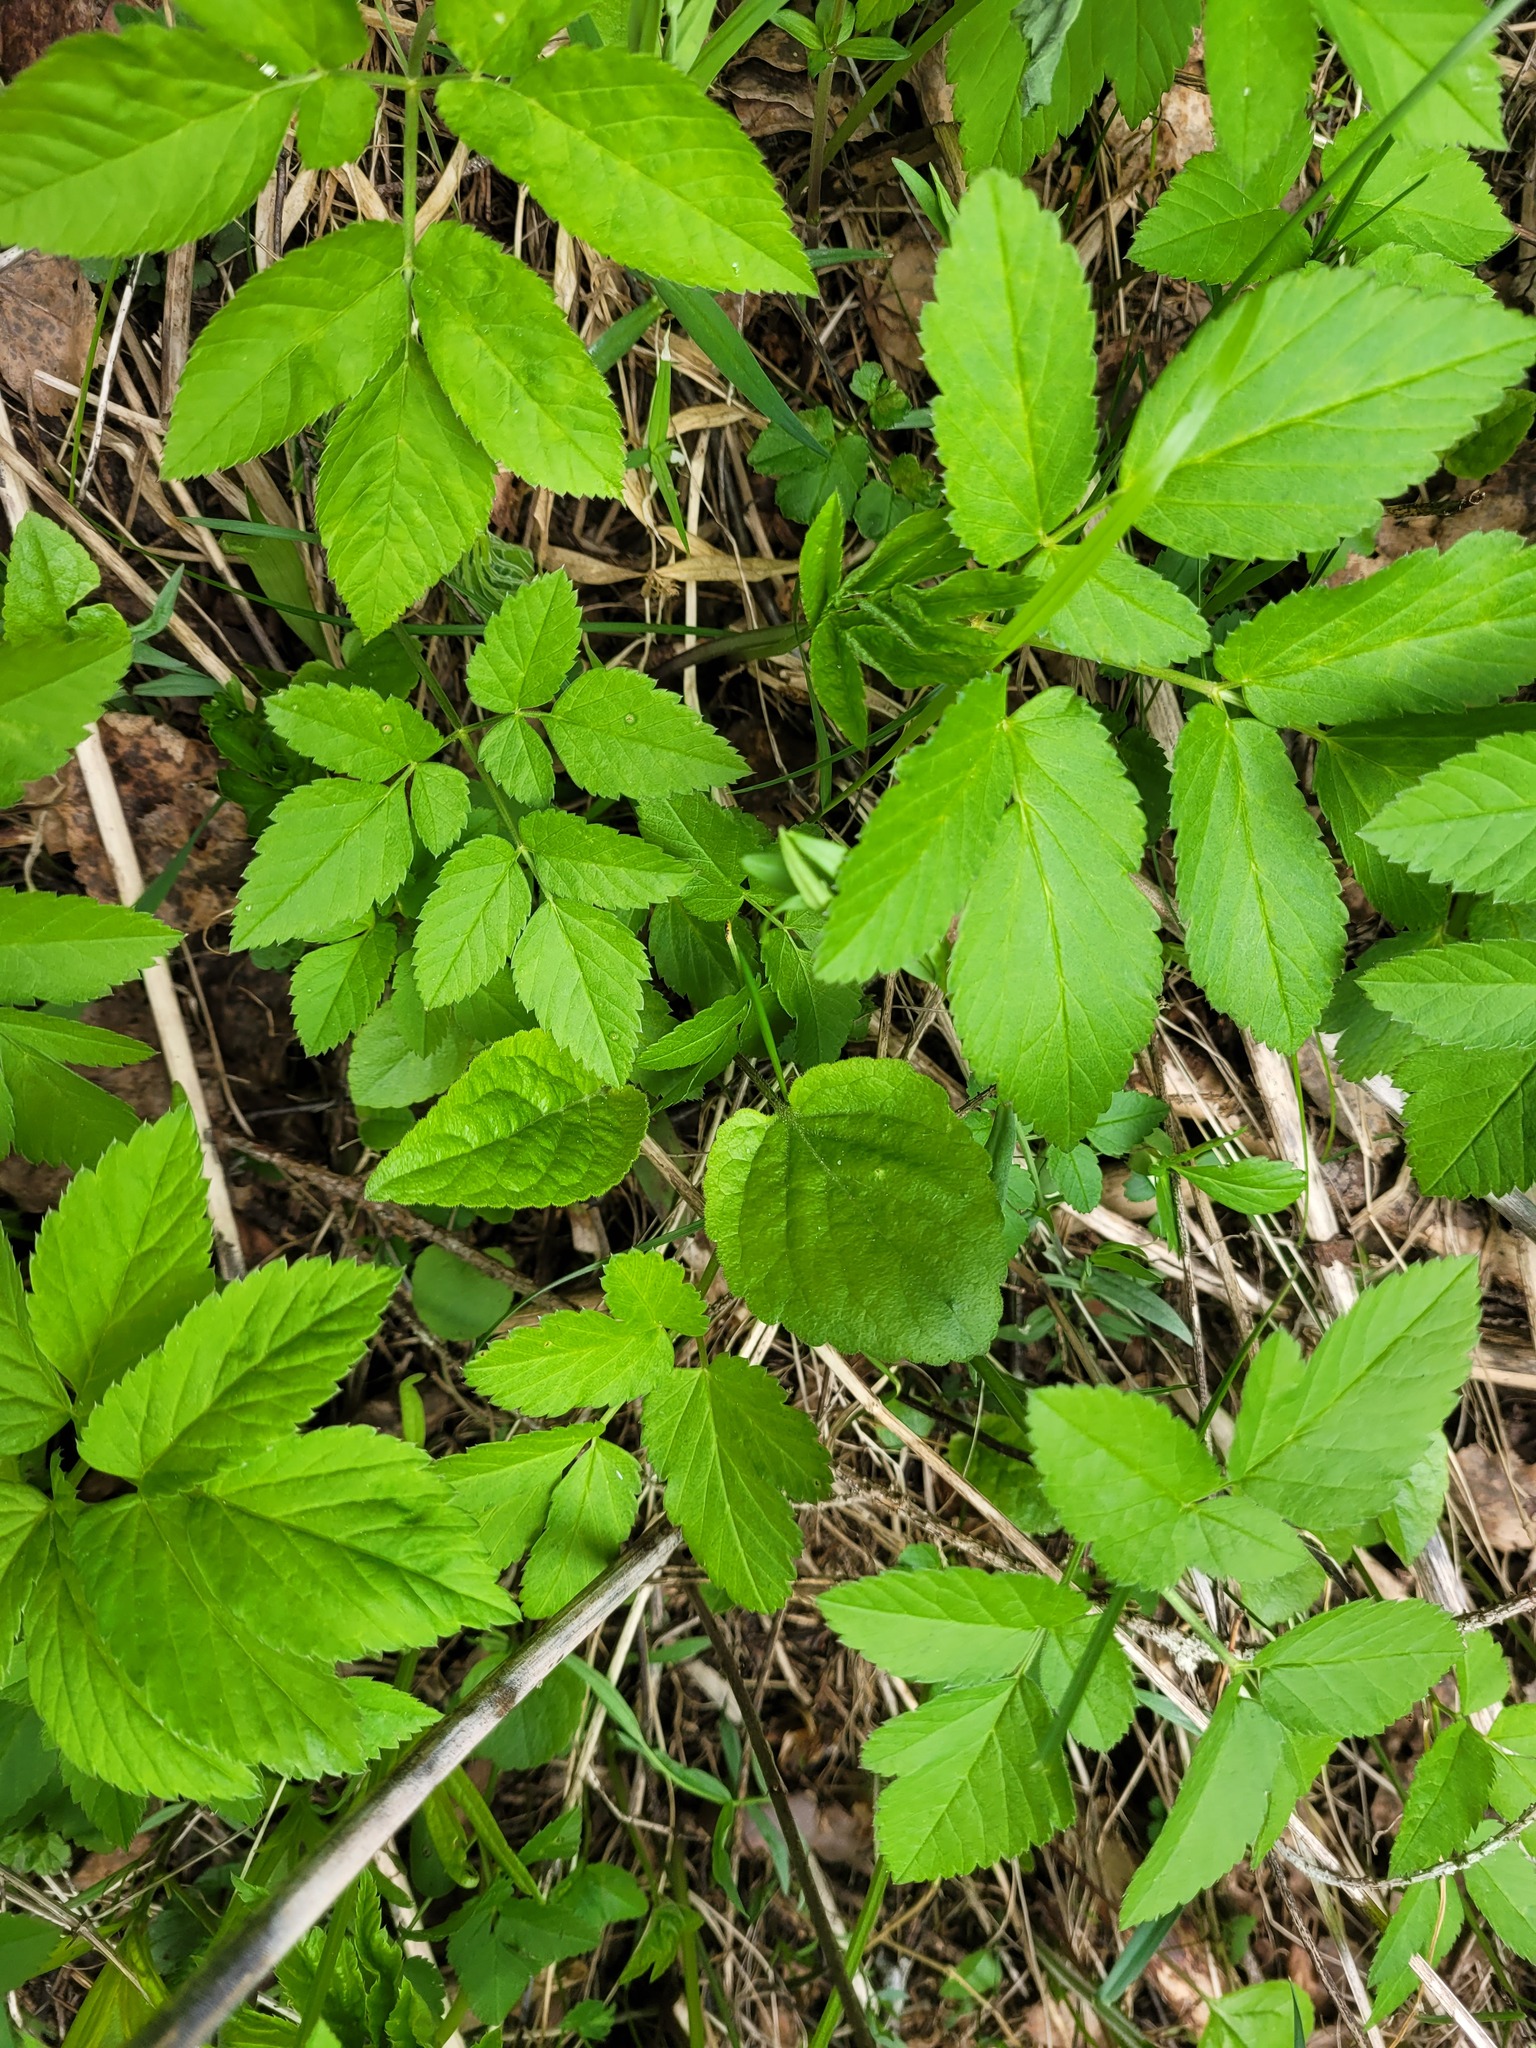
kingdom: Plantae
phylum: Tracheophyta
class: Magnoliopsida
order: Asterales
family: Campanulaceae
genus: Campanula
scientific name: Campanula rapunculoides
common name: Creeping bellflower
